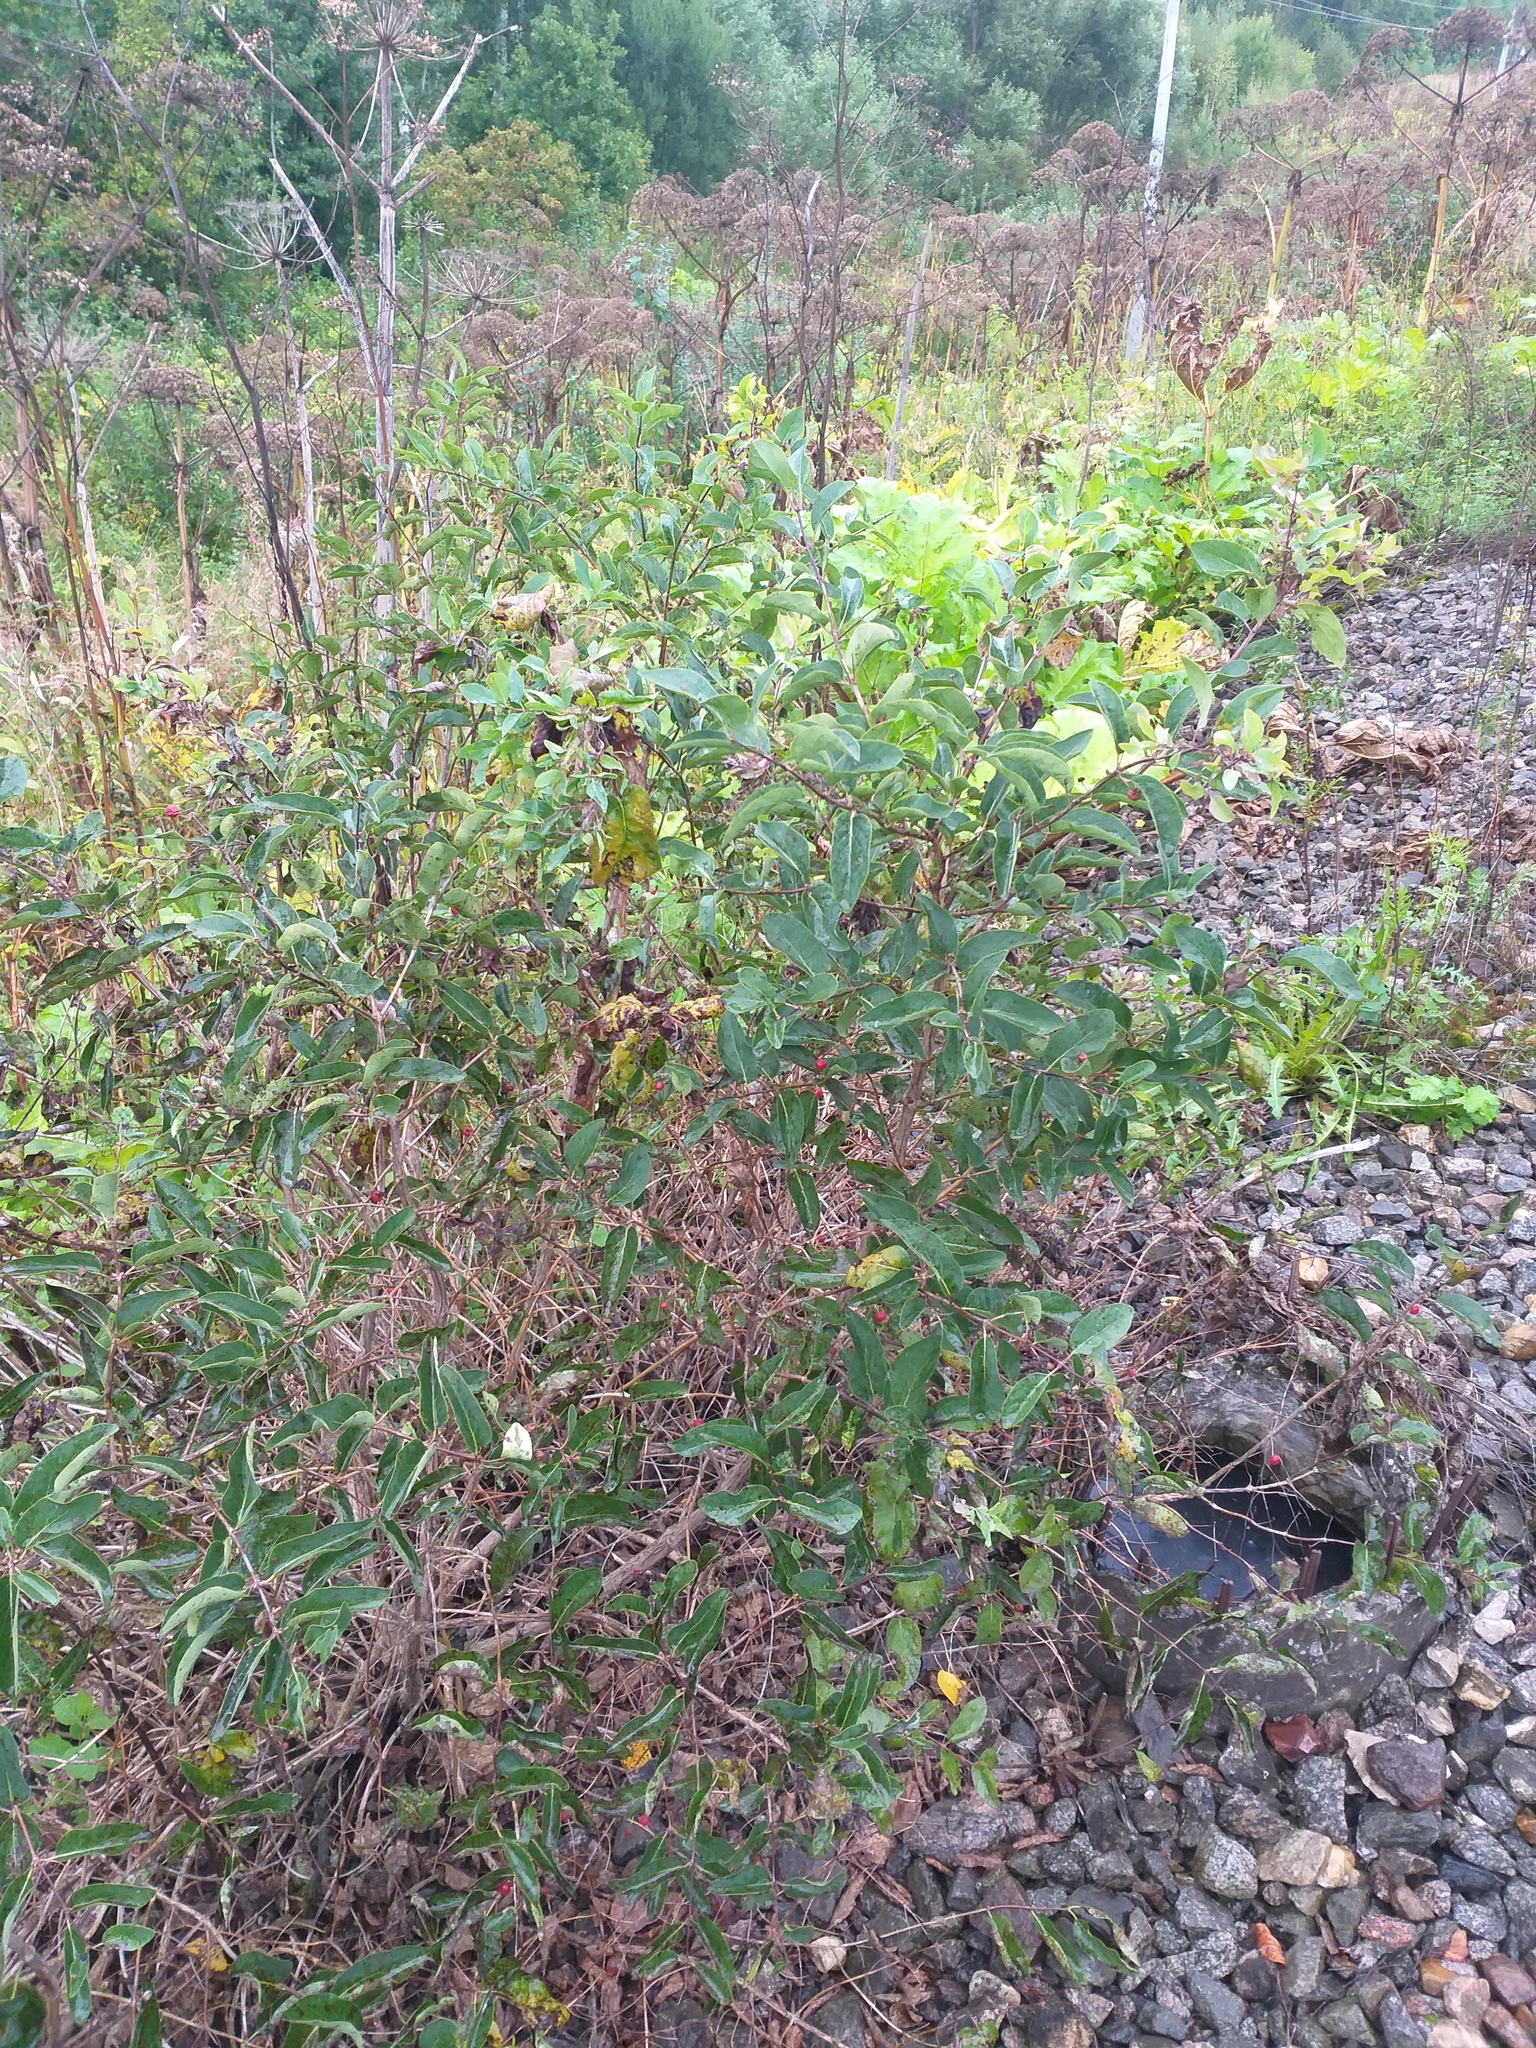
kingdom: Plantae
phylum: Tracheophyta
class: Magnoliopsida
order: Dipsacales
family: Caprifoliaceae
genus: Lonicera
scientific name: Lonicera tatarica
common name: Tatarian honeysuckle
